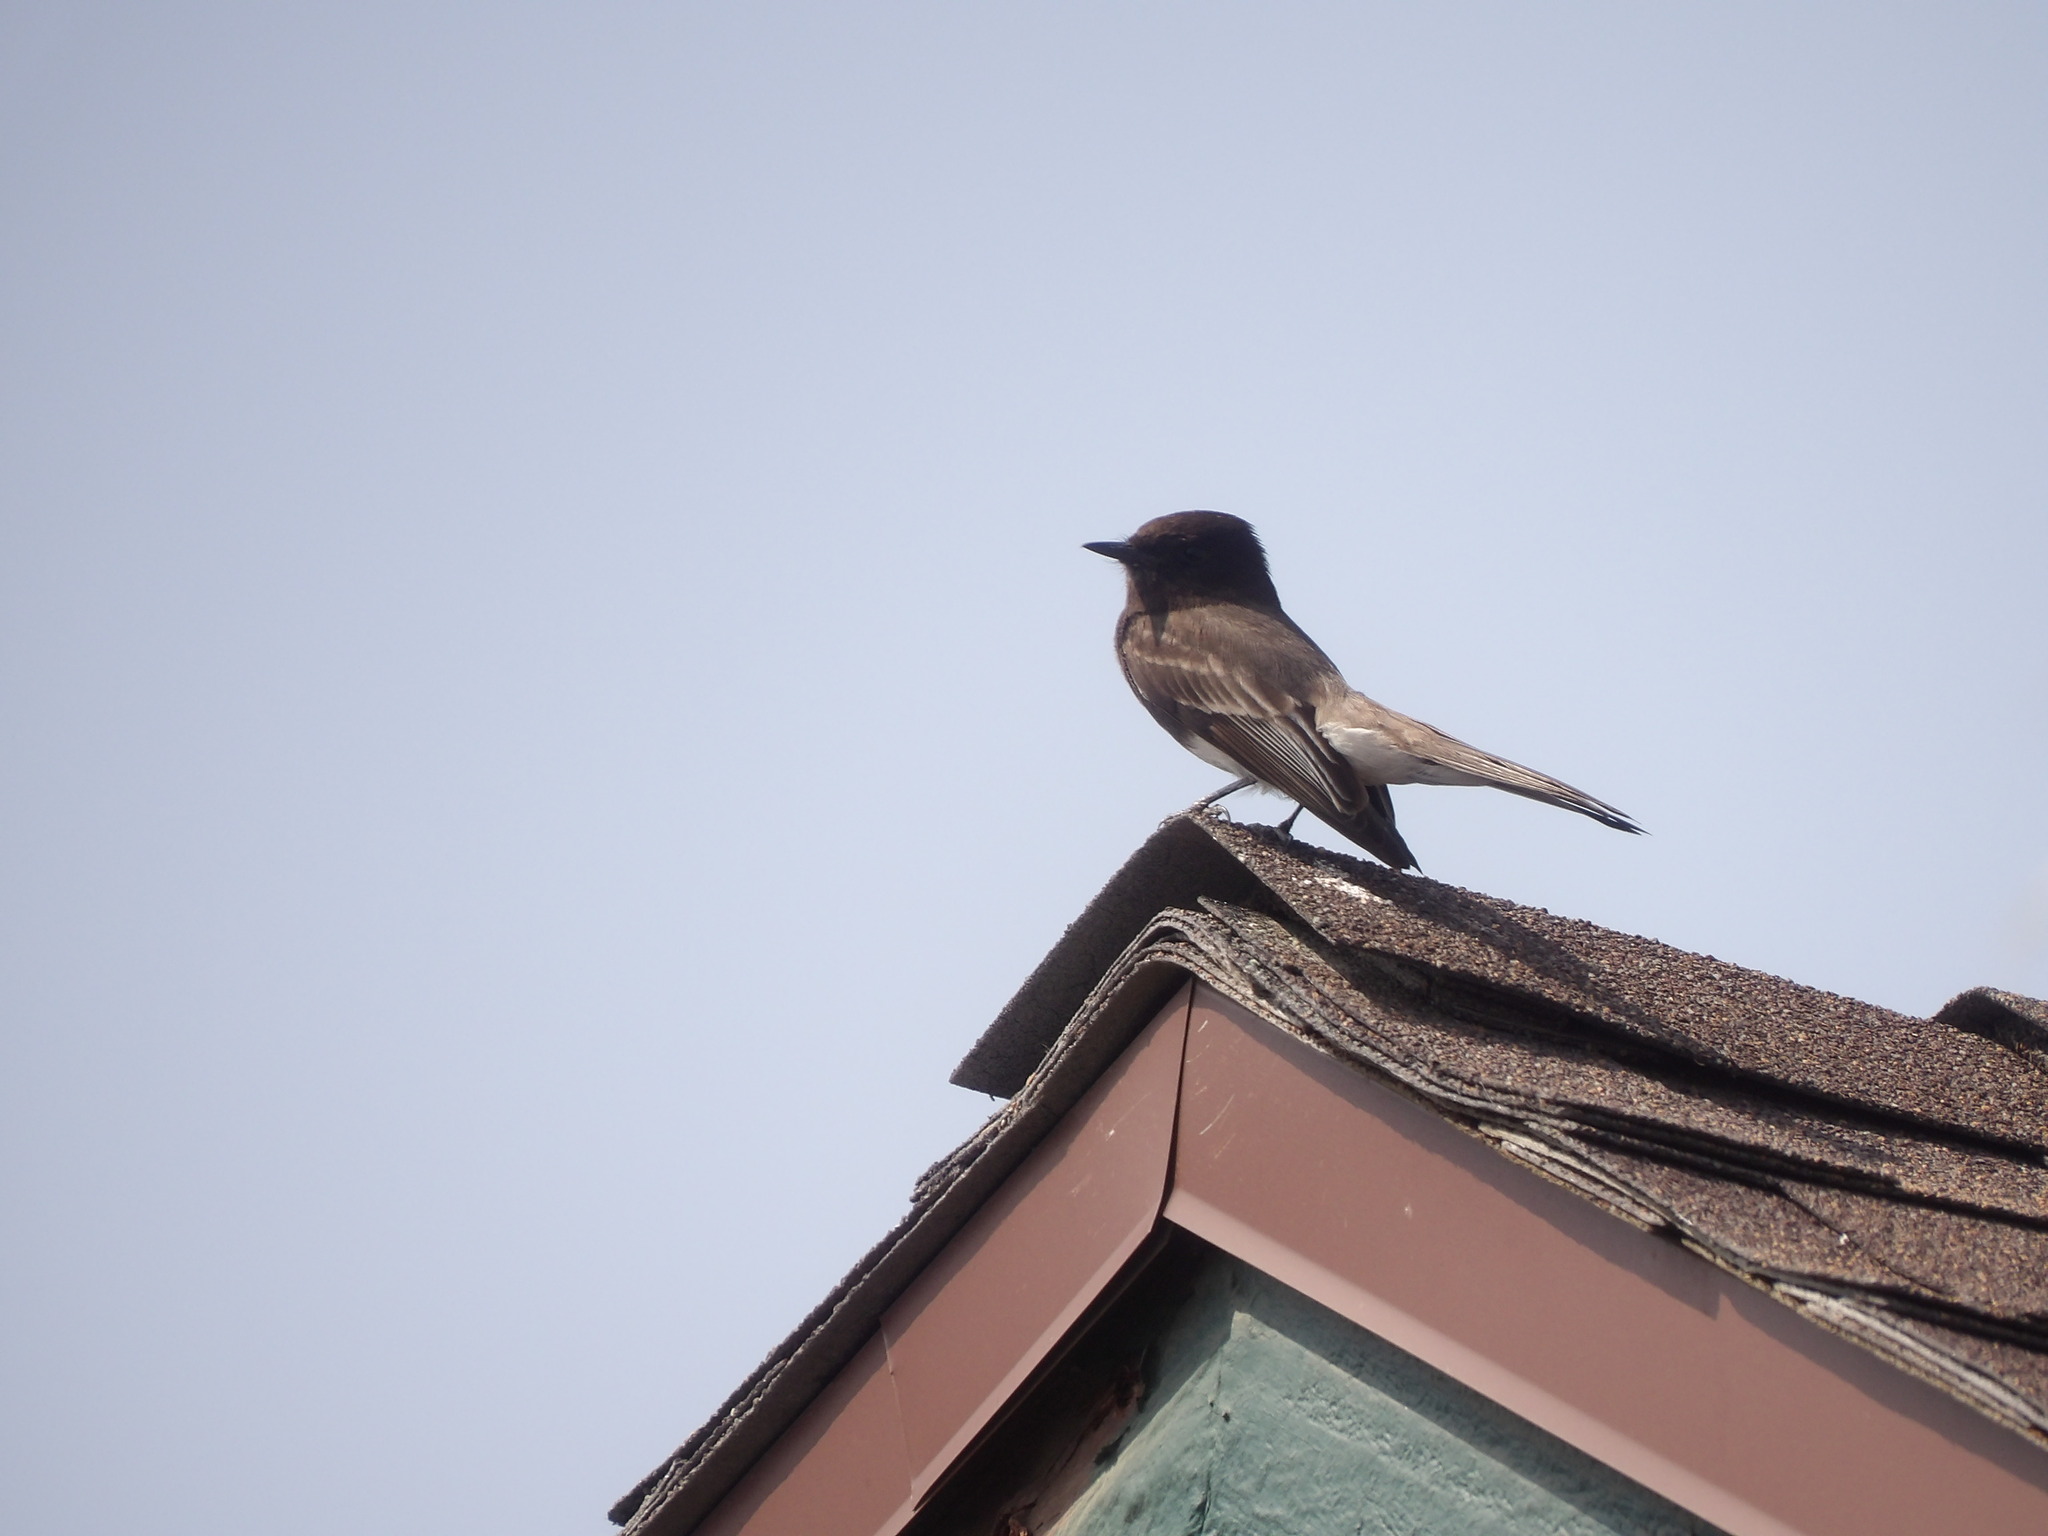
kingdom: Animalia
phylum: Chordata
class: Aves
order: Passeriformes
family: Tyrannidae
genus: Sayornis
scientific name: Sayornis nigricans
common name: Black phoebe
